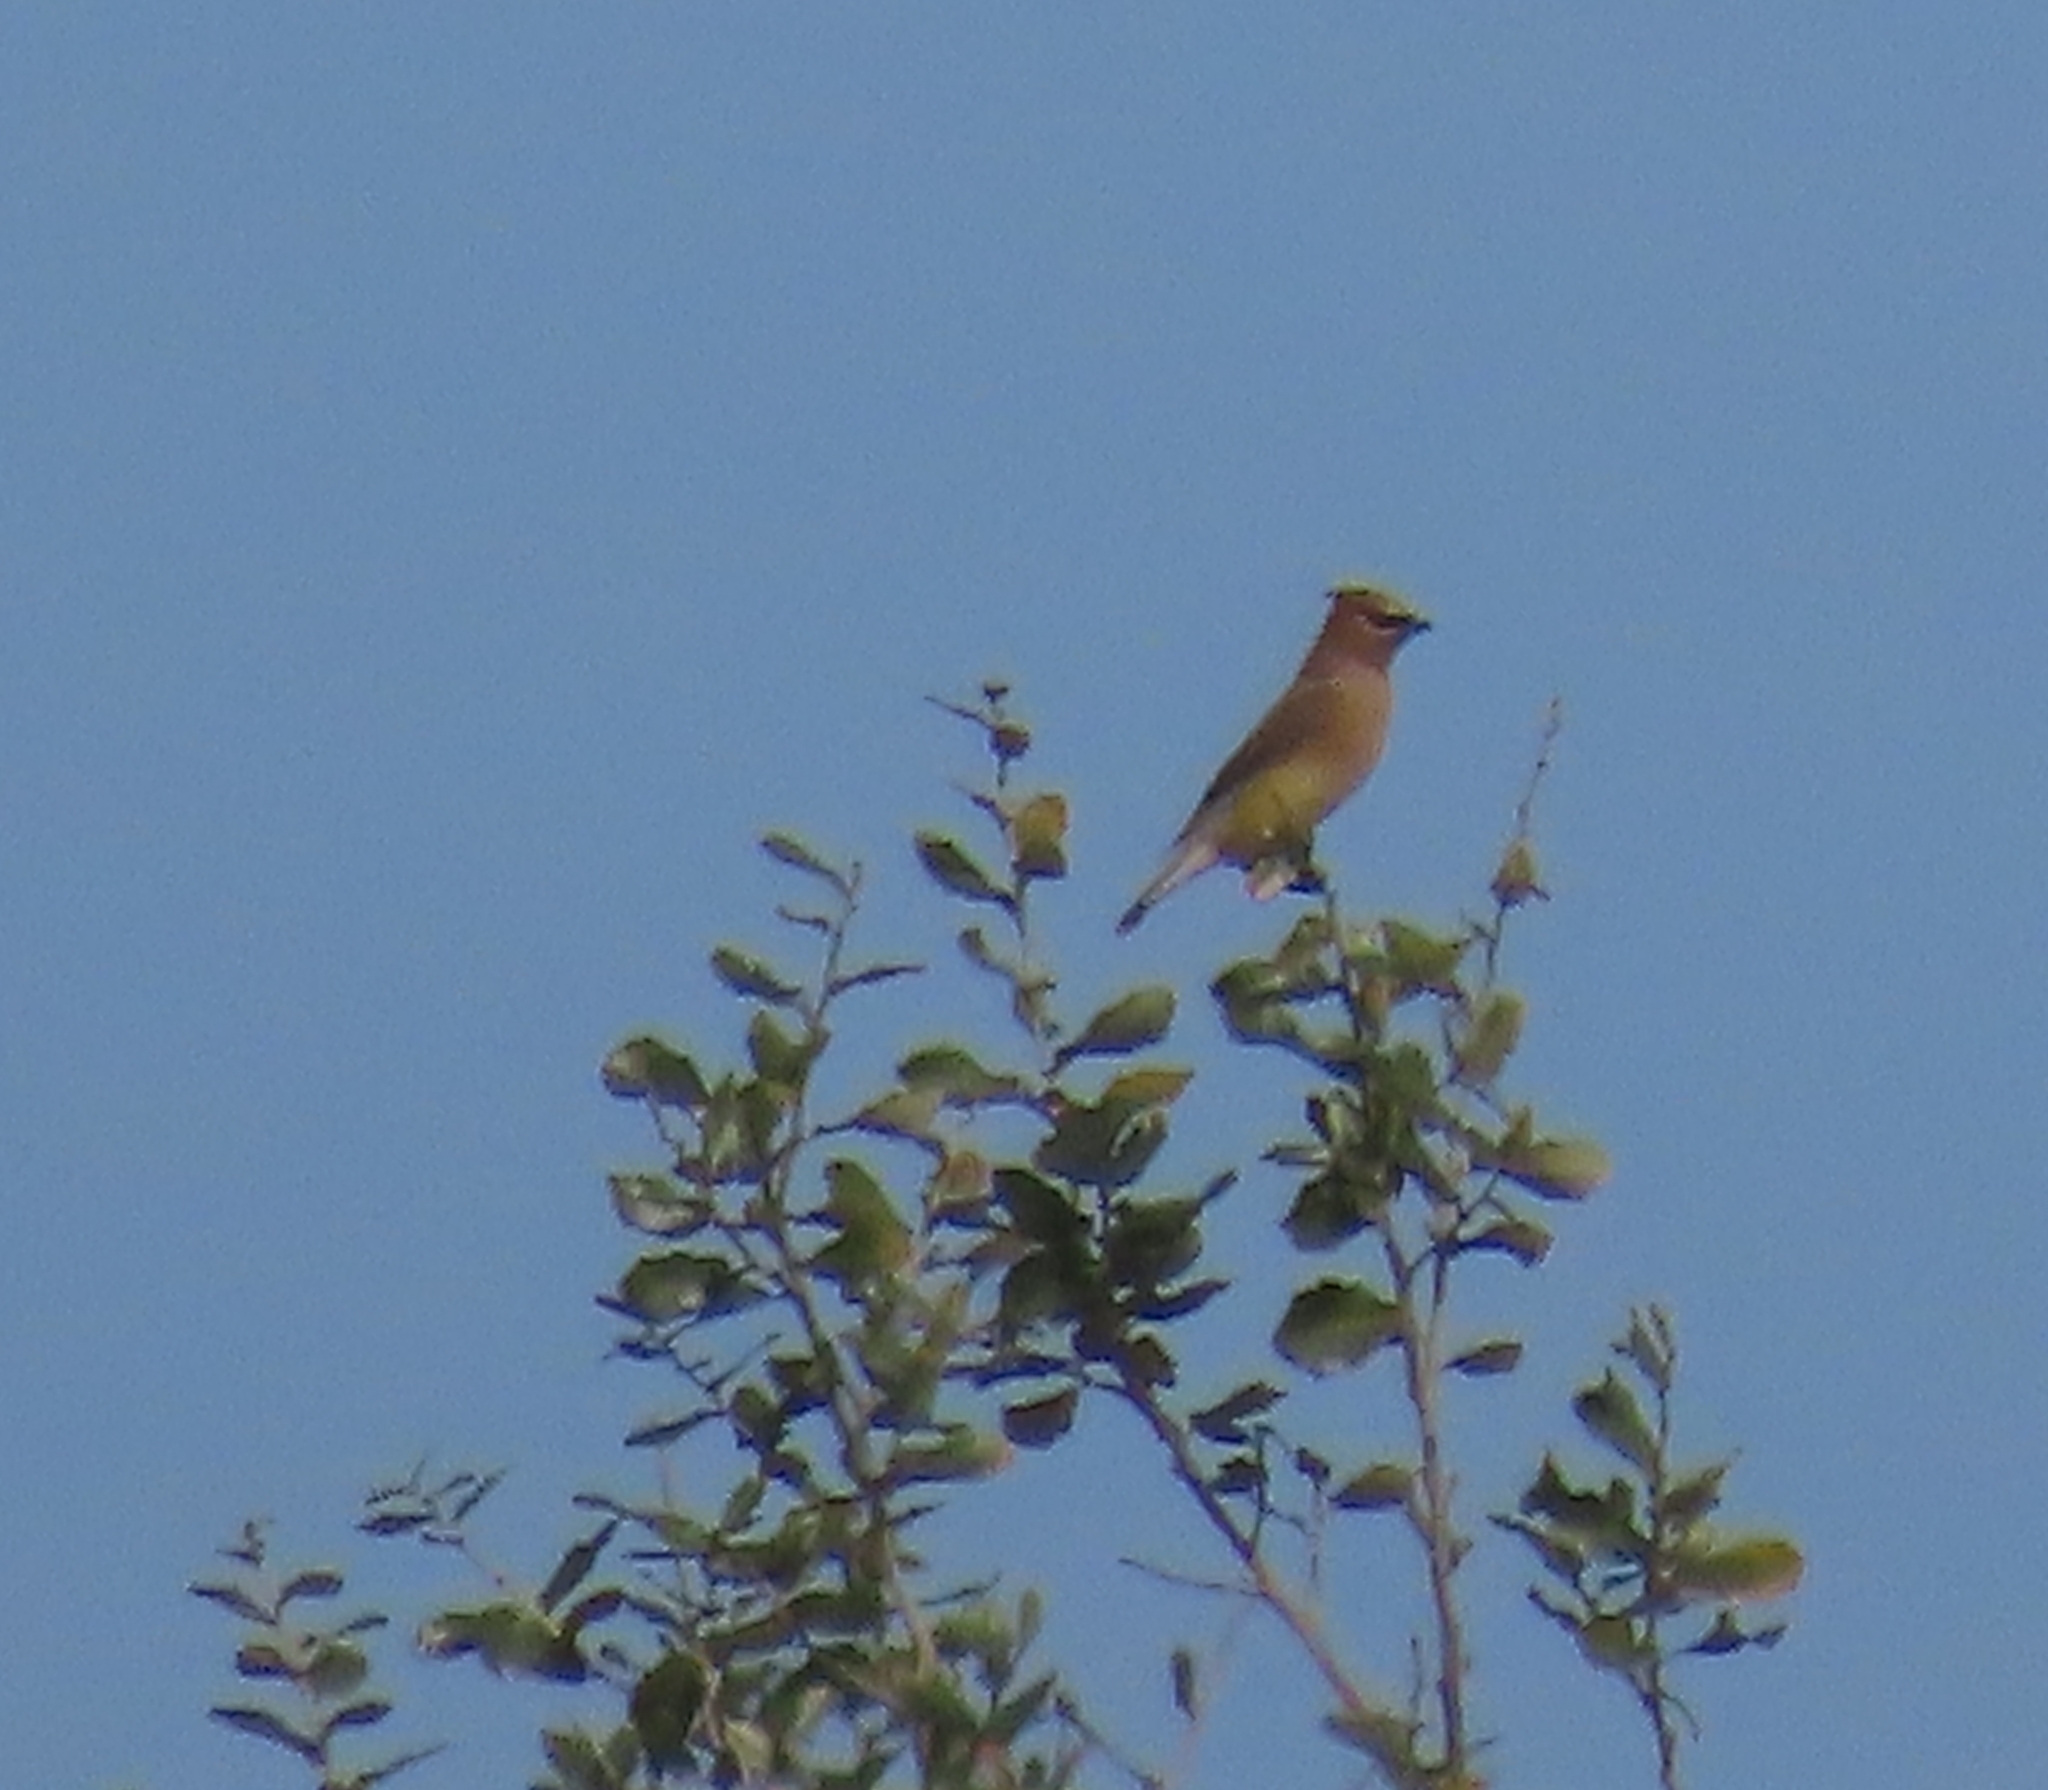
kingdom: Animalia
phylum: Chordata
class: Aves
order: Passeriformes
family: Bombycillidae
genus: Bombycilla
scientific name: Bombycilla cedrorum
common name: Cedar waxwing
